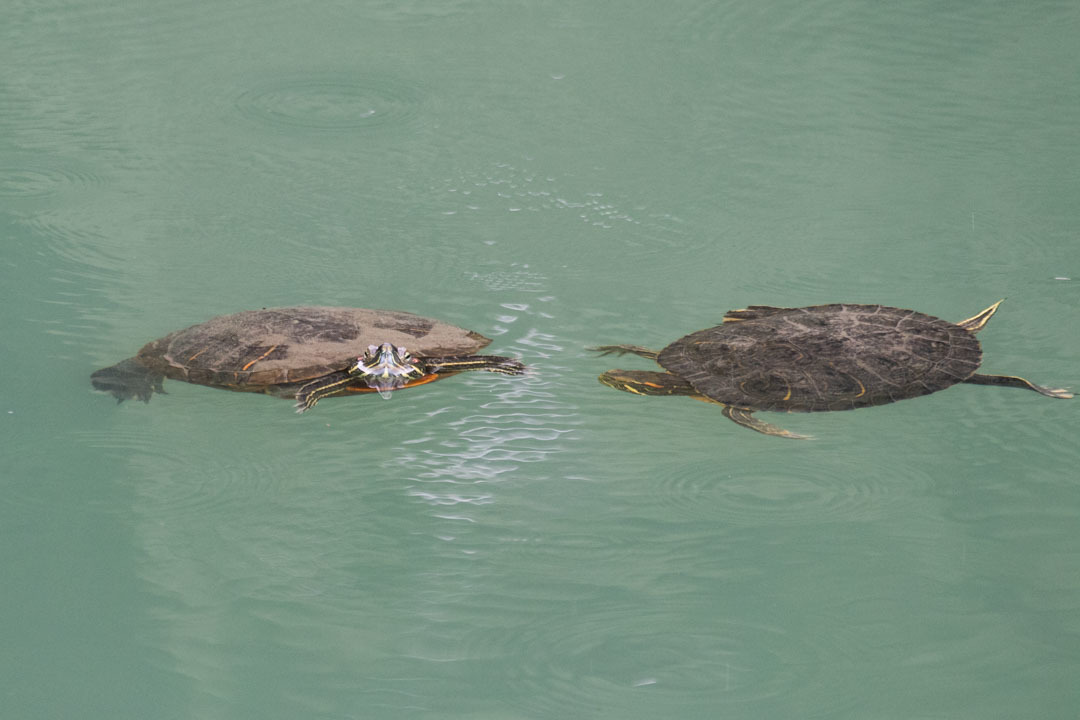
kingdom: Animalia
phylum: Chordata
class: Testudines
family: Emydidae
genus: Trachemys
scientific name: Trachemys scripta
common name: Slider
